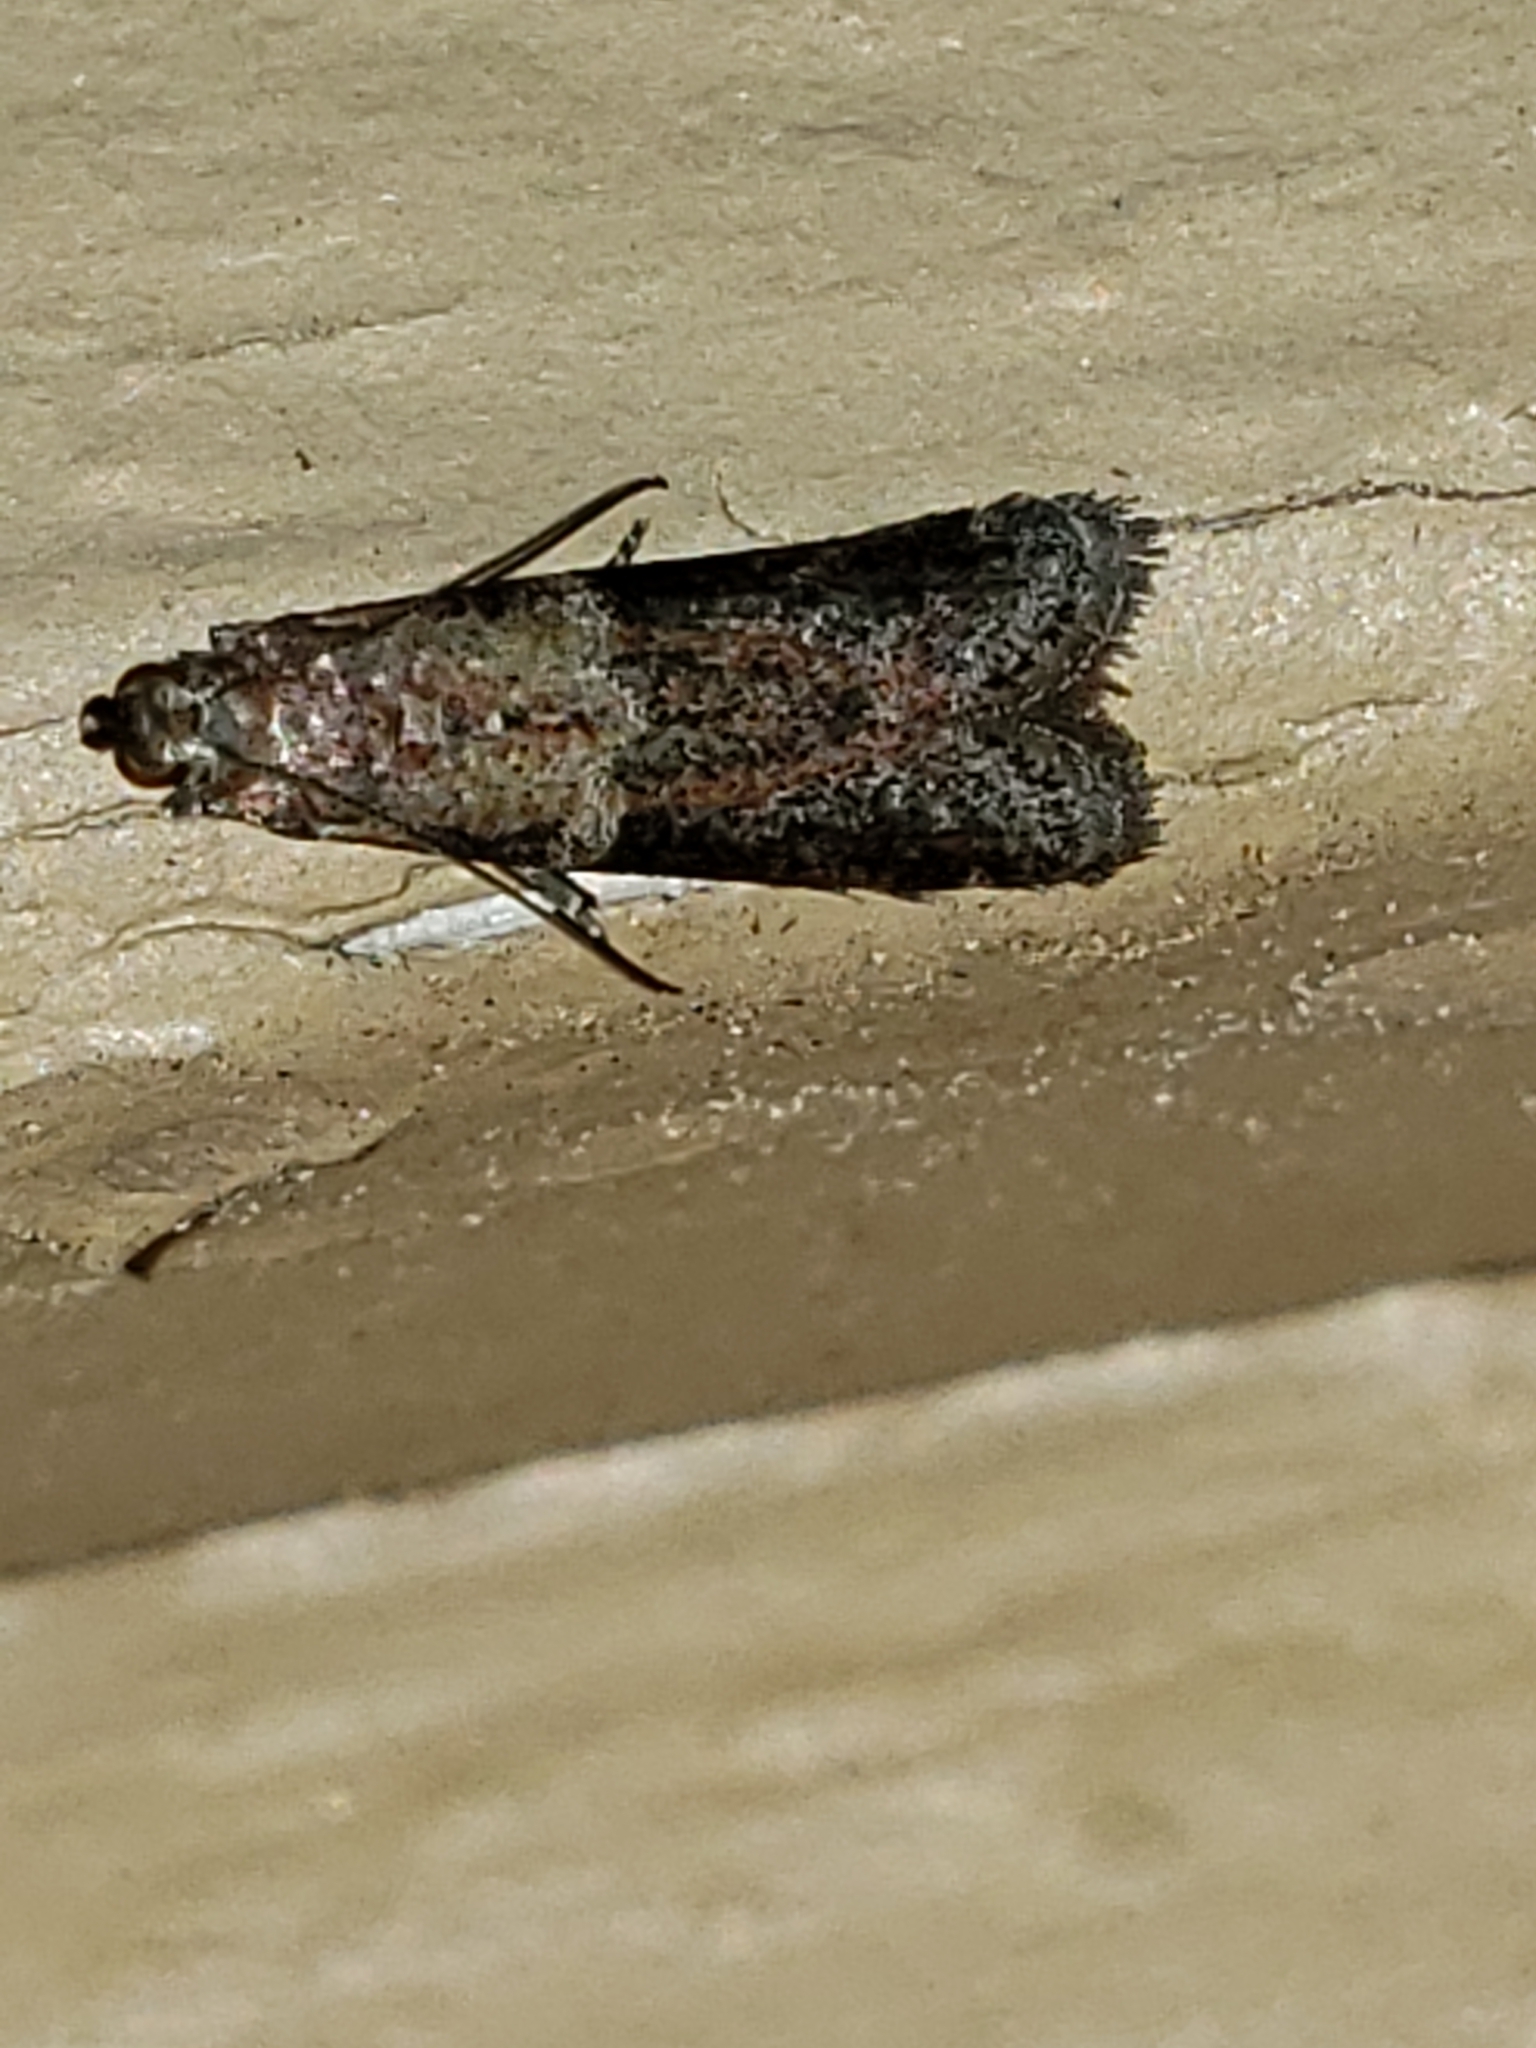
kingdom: Animalia
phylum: Arthropoda
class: Insecta
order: Lepidoptera
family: Pyralidae
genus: Ephestiodes
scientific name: Ephestiodes infimella
